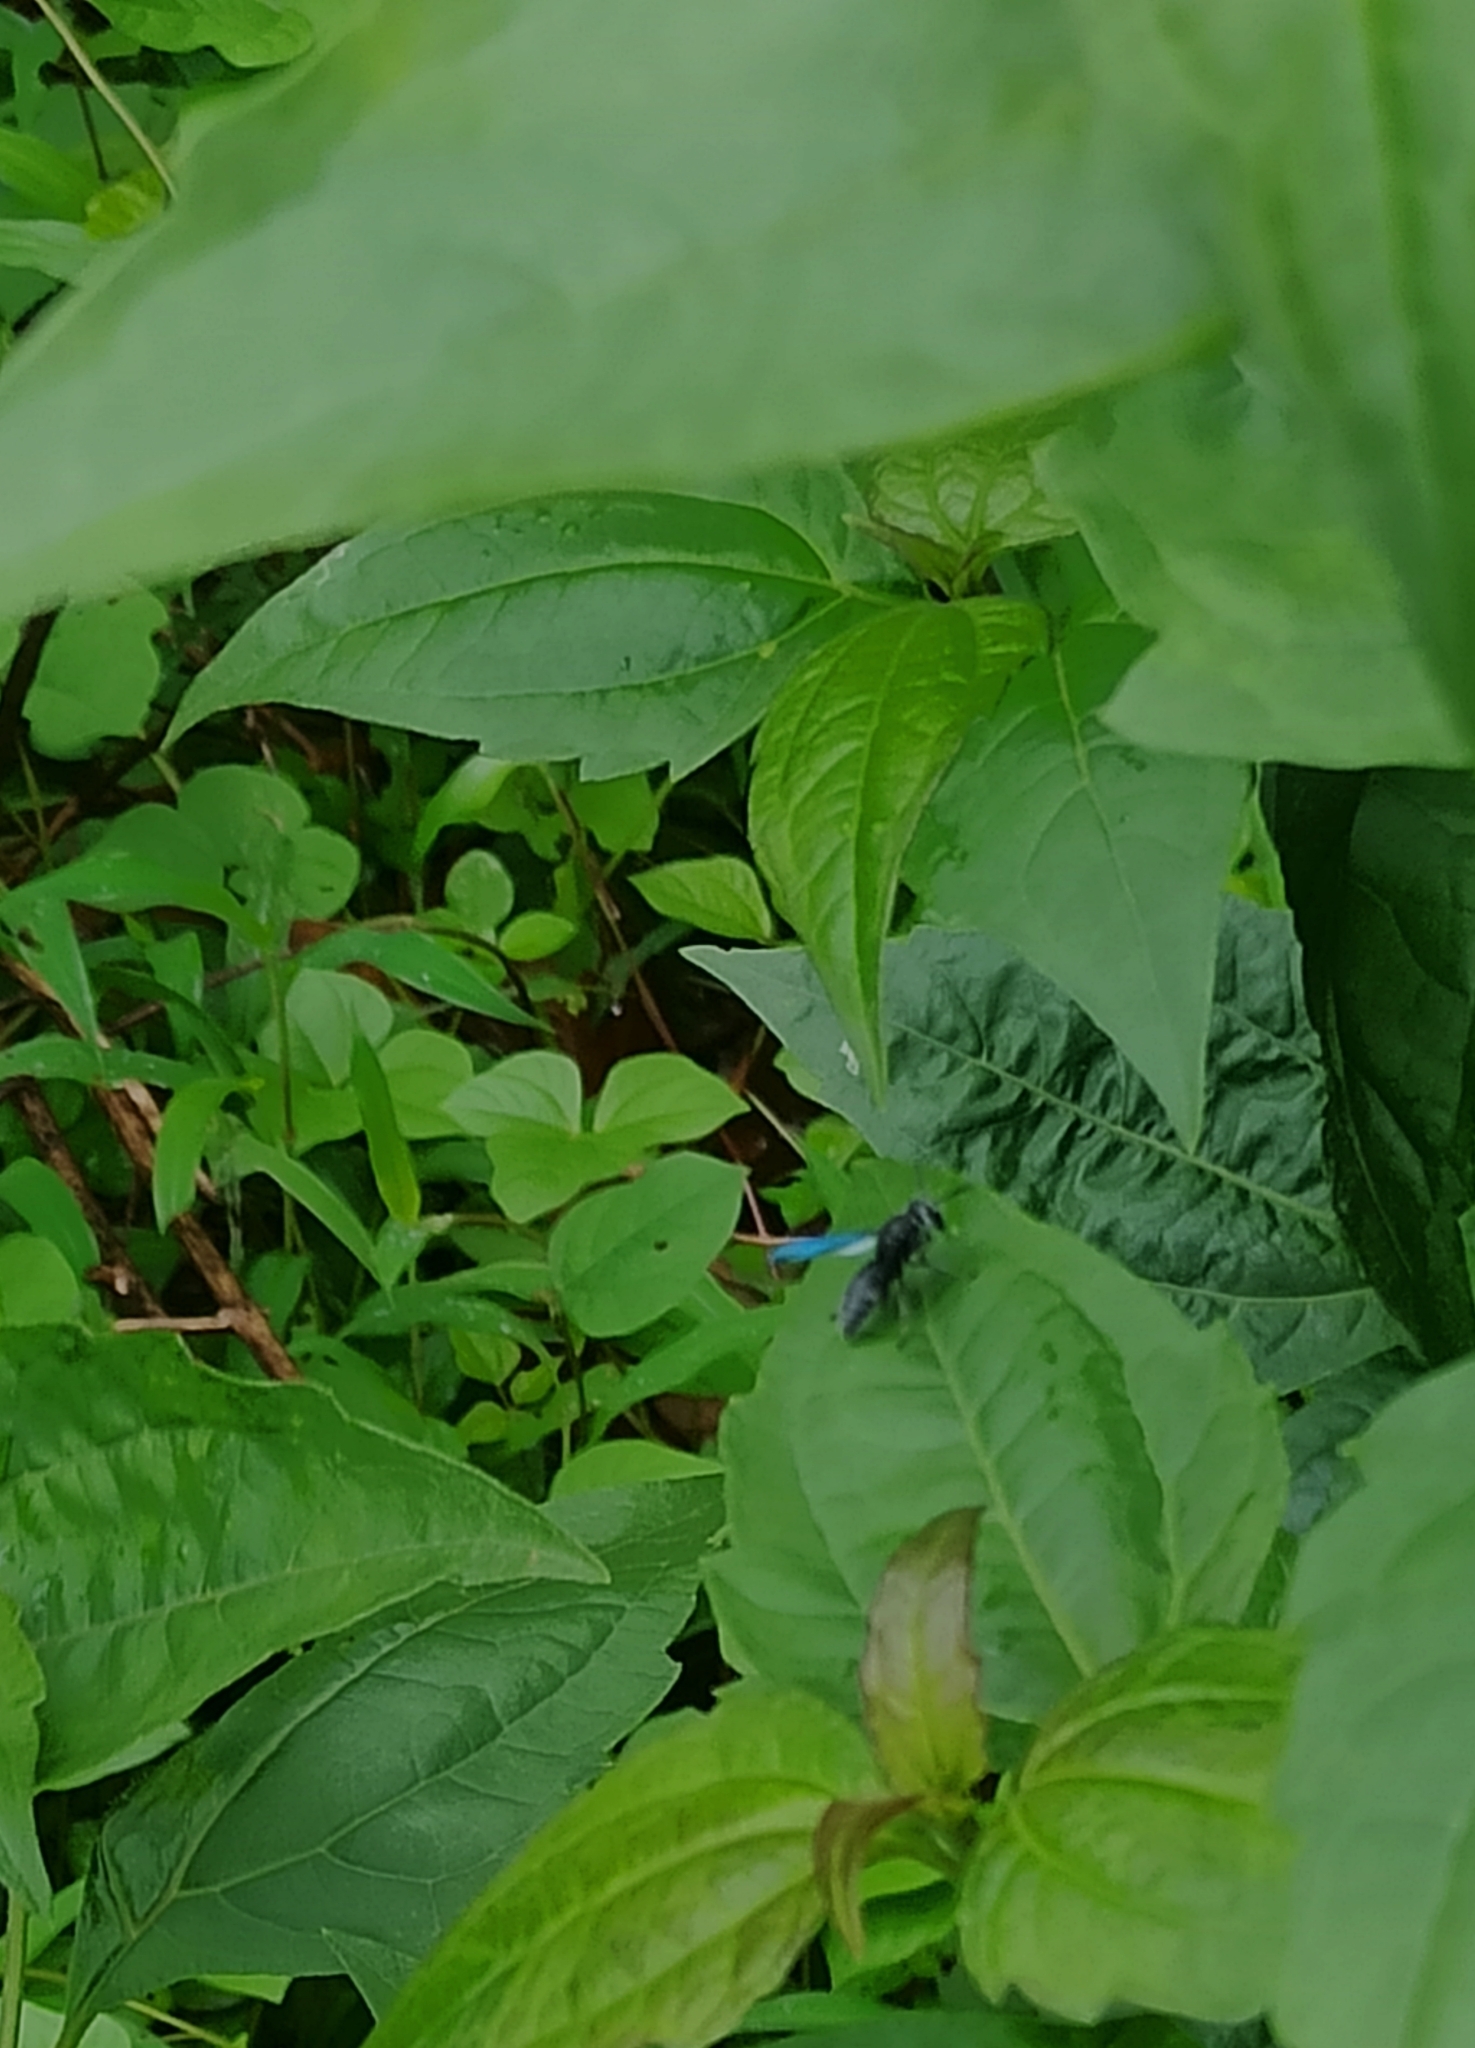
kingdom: Animalia
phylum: Arthropoda
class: Insecta
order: Hymenoptera
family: Eumenidae
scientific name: Eumenidae
